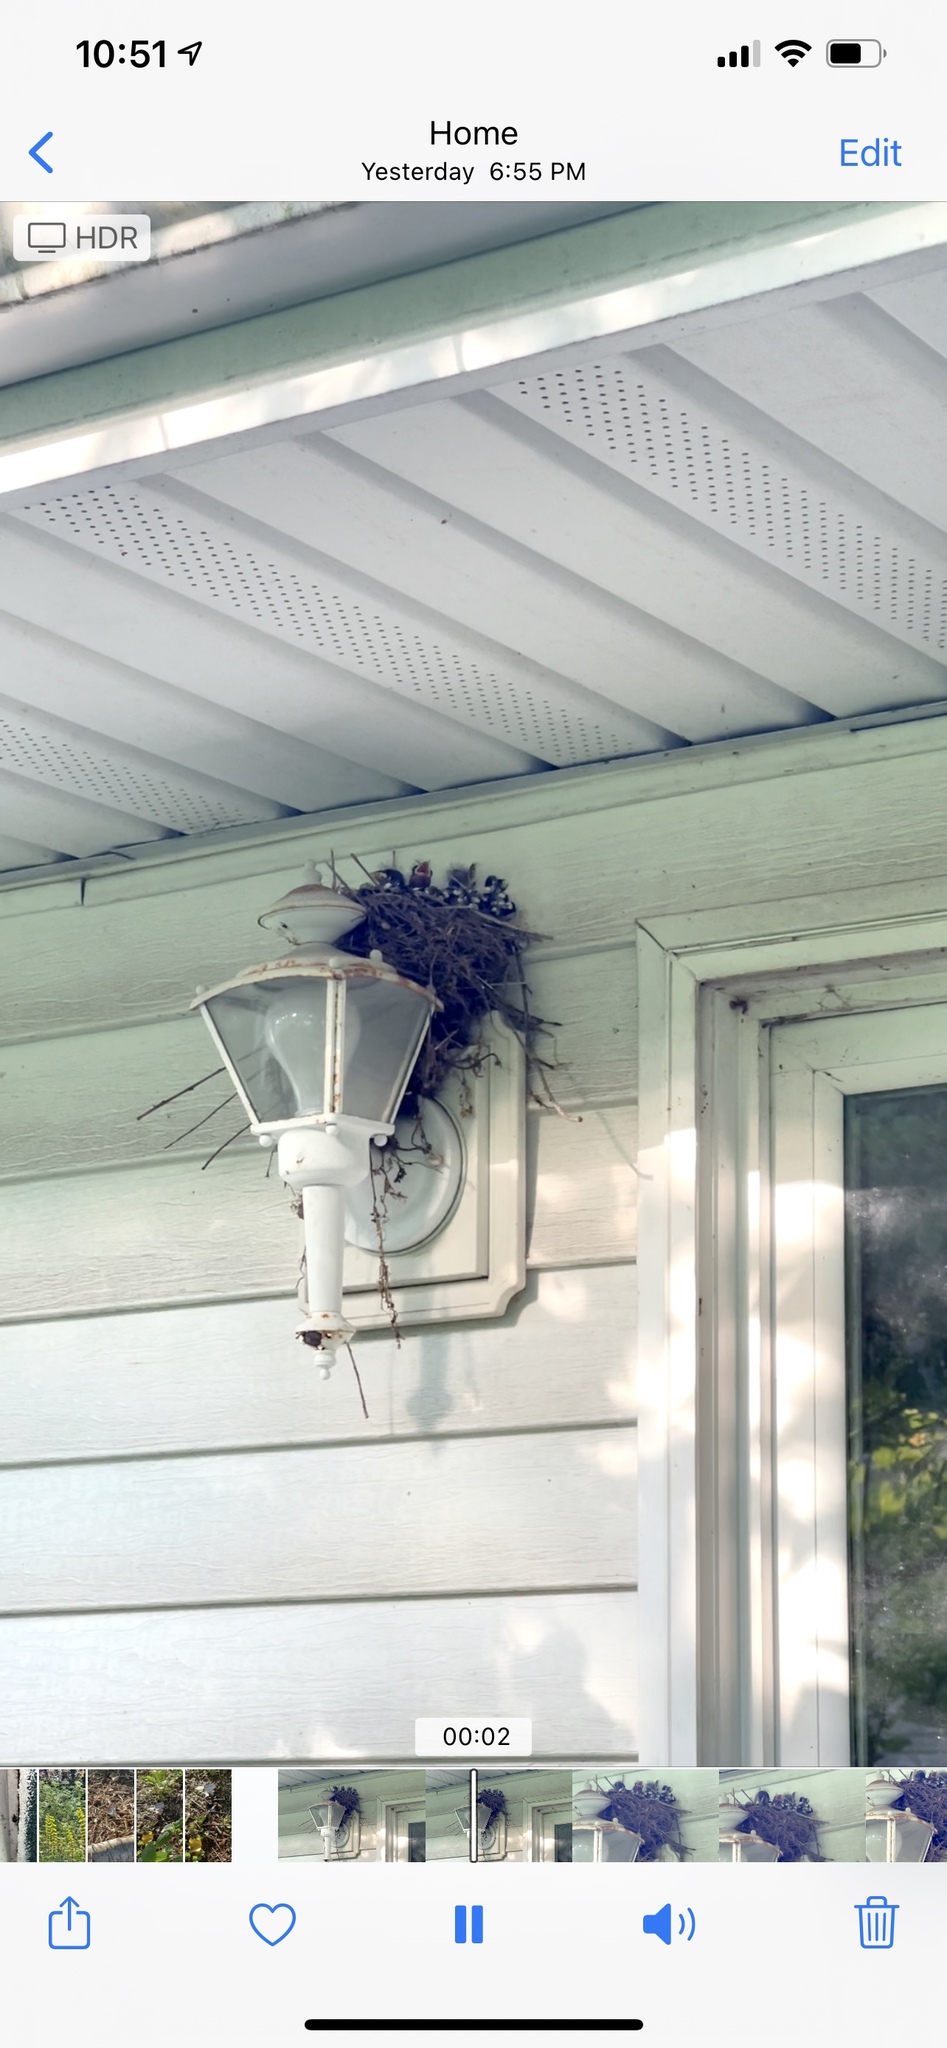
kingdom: Animalia
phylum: Chordata
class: Aves
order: Passeriformes
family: Fringillidae
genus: Haemorhous
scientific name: Haemorhous mexicanus
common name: House finch
